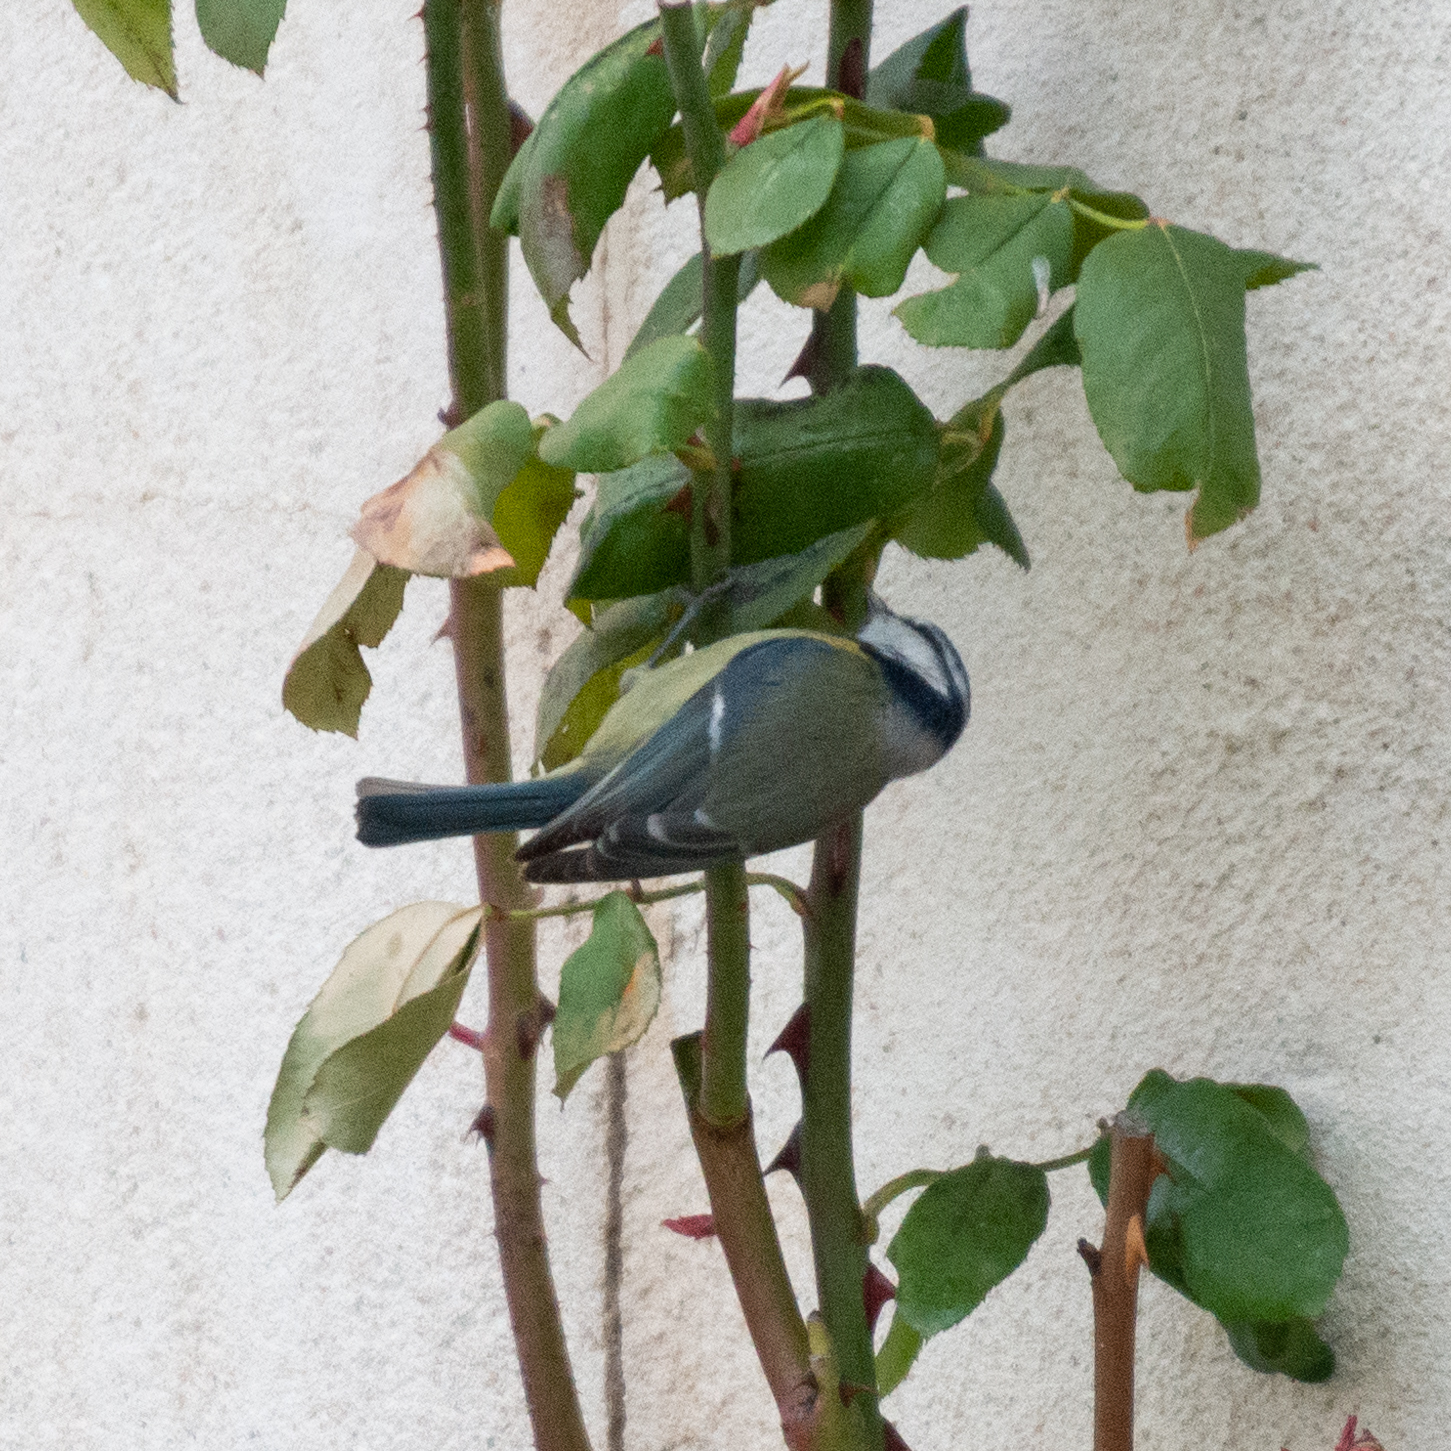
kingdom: Animalia
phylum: Chordata
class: Aves
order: Passeriformes
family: Paridae
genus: Cyanistes
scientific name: Cyanistes caeruleus
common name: Eurasian blue tit
